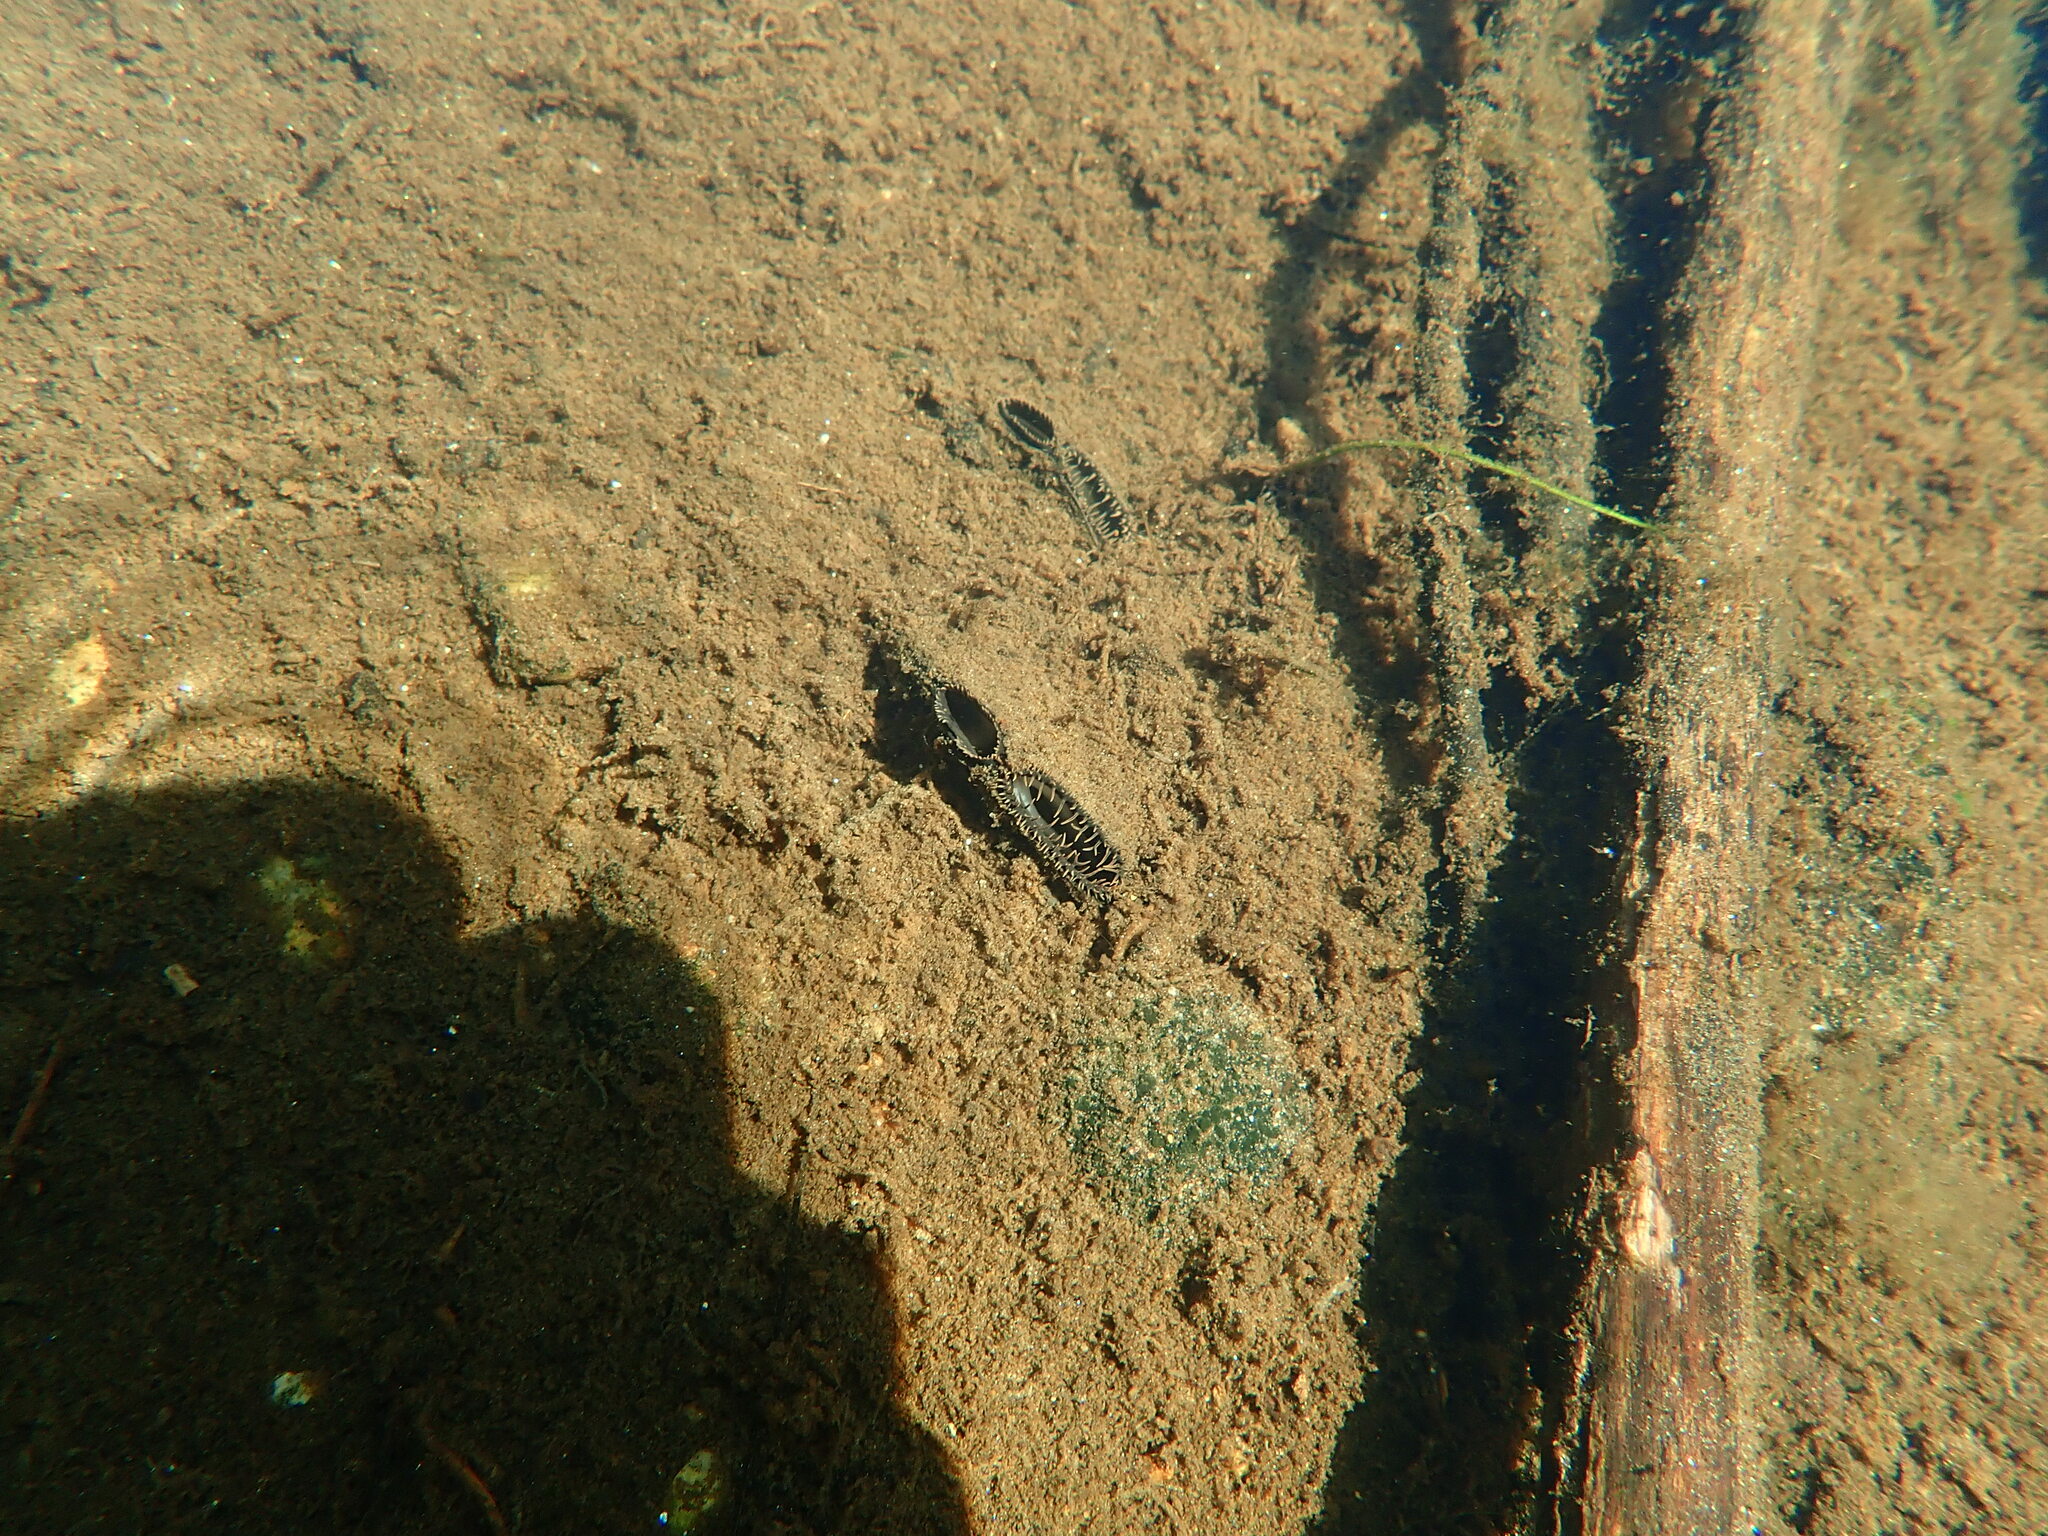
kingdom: Animalia
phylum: Mollusca
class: Bivalvia
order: Unionida
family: Unionidae
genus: Elliptio
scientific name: Elliptio complanata
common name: Eastern elliptio
